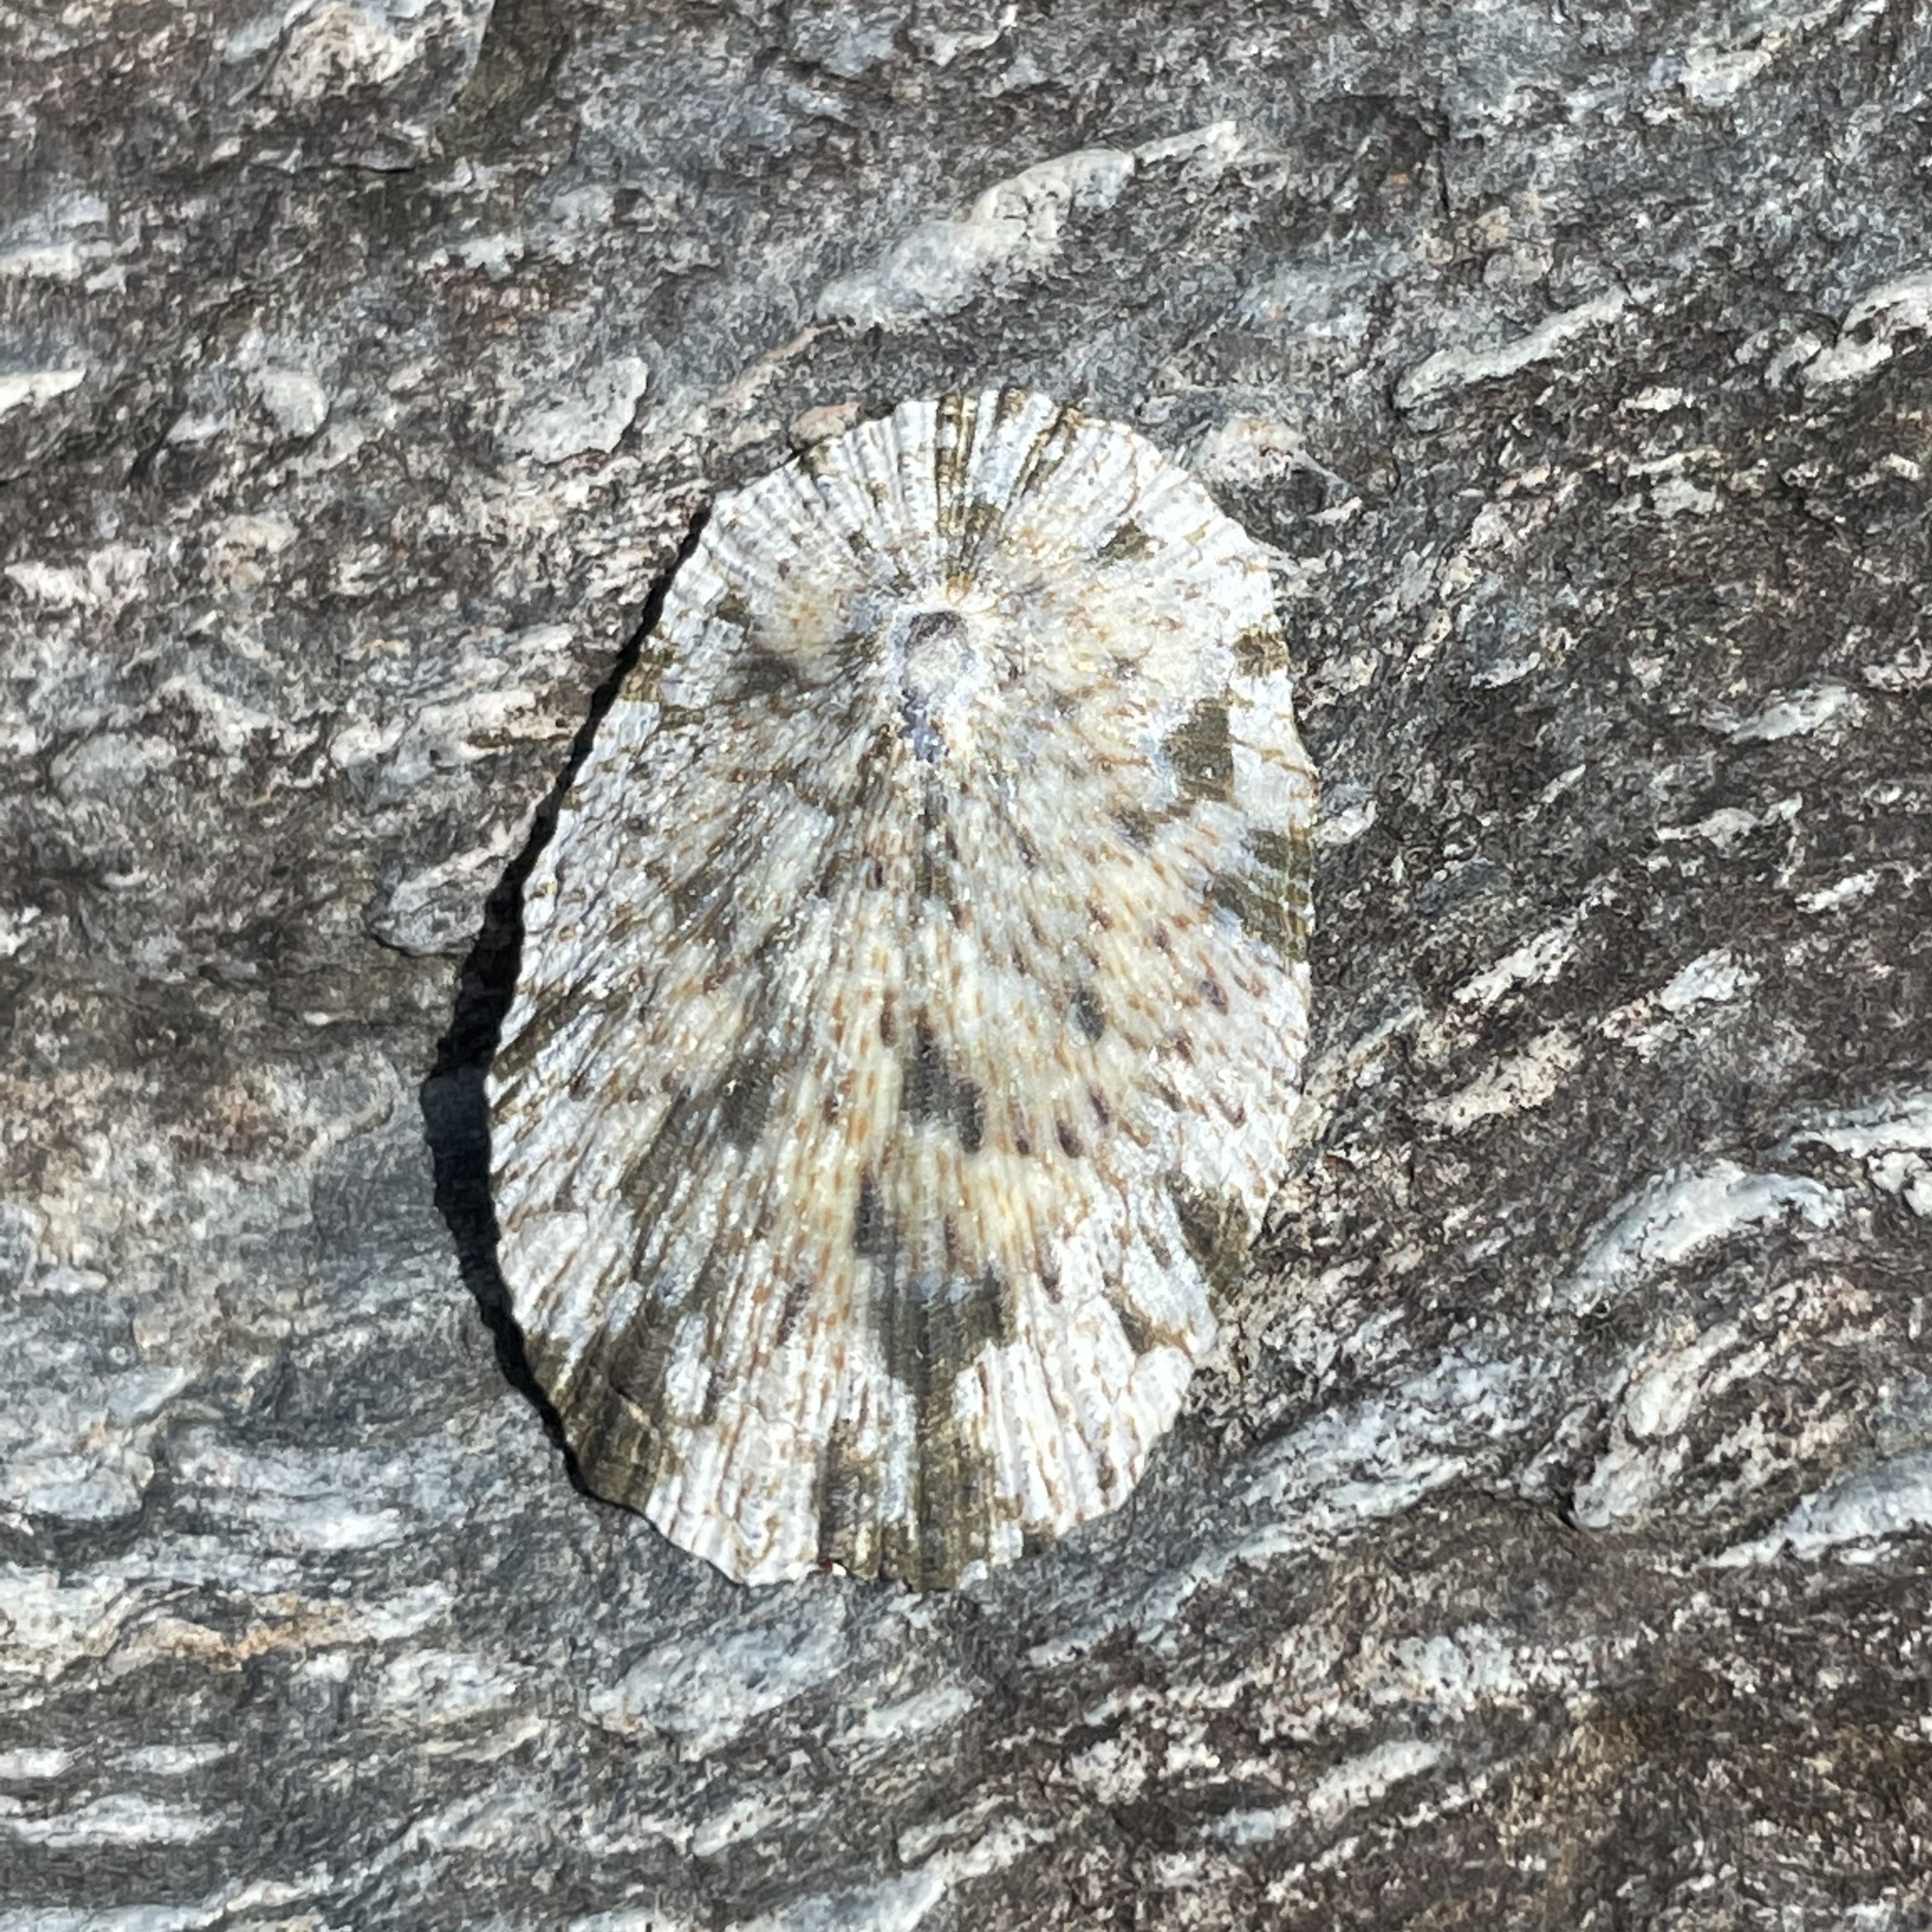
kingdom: Animalia
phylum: Mollusca
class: Gastropoda
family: Nacellidae
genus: Cellana
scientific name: Cellana toreuma
